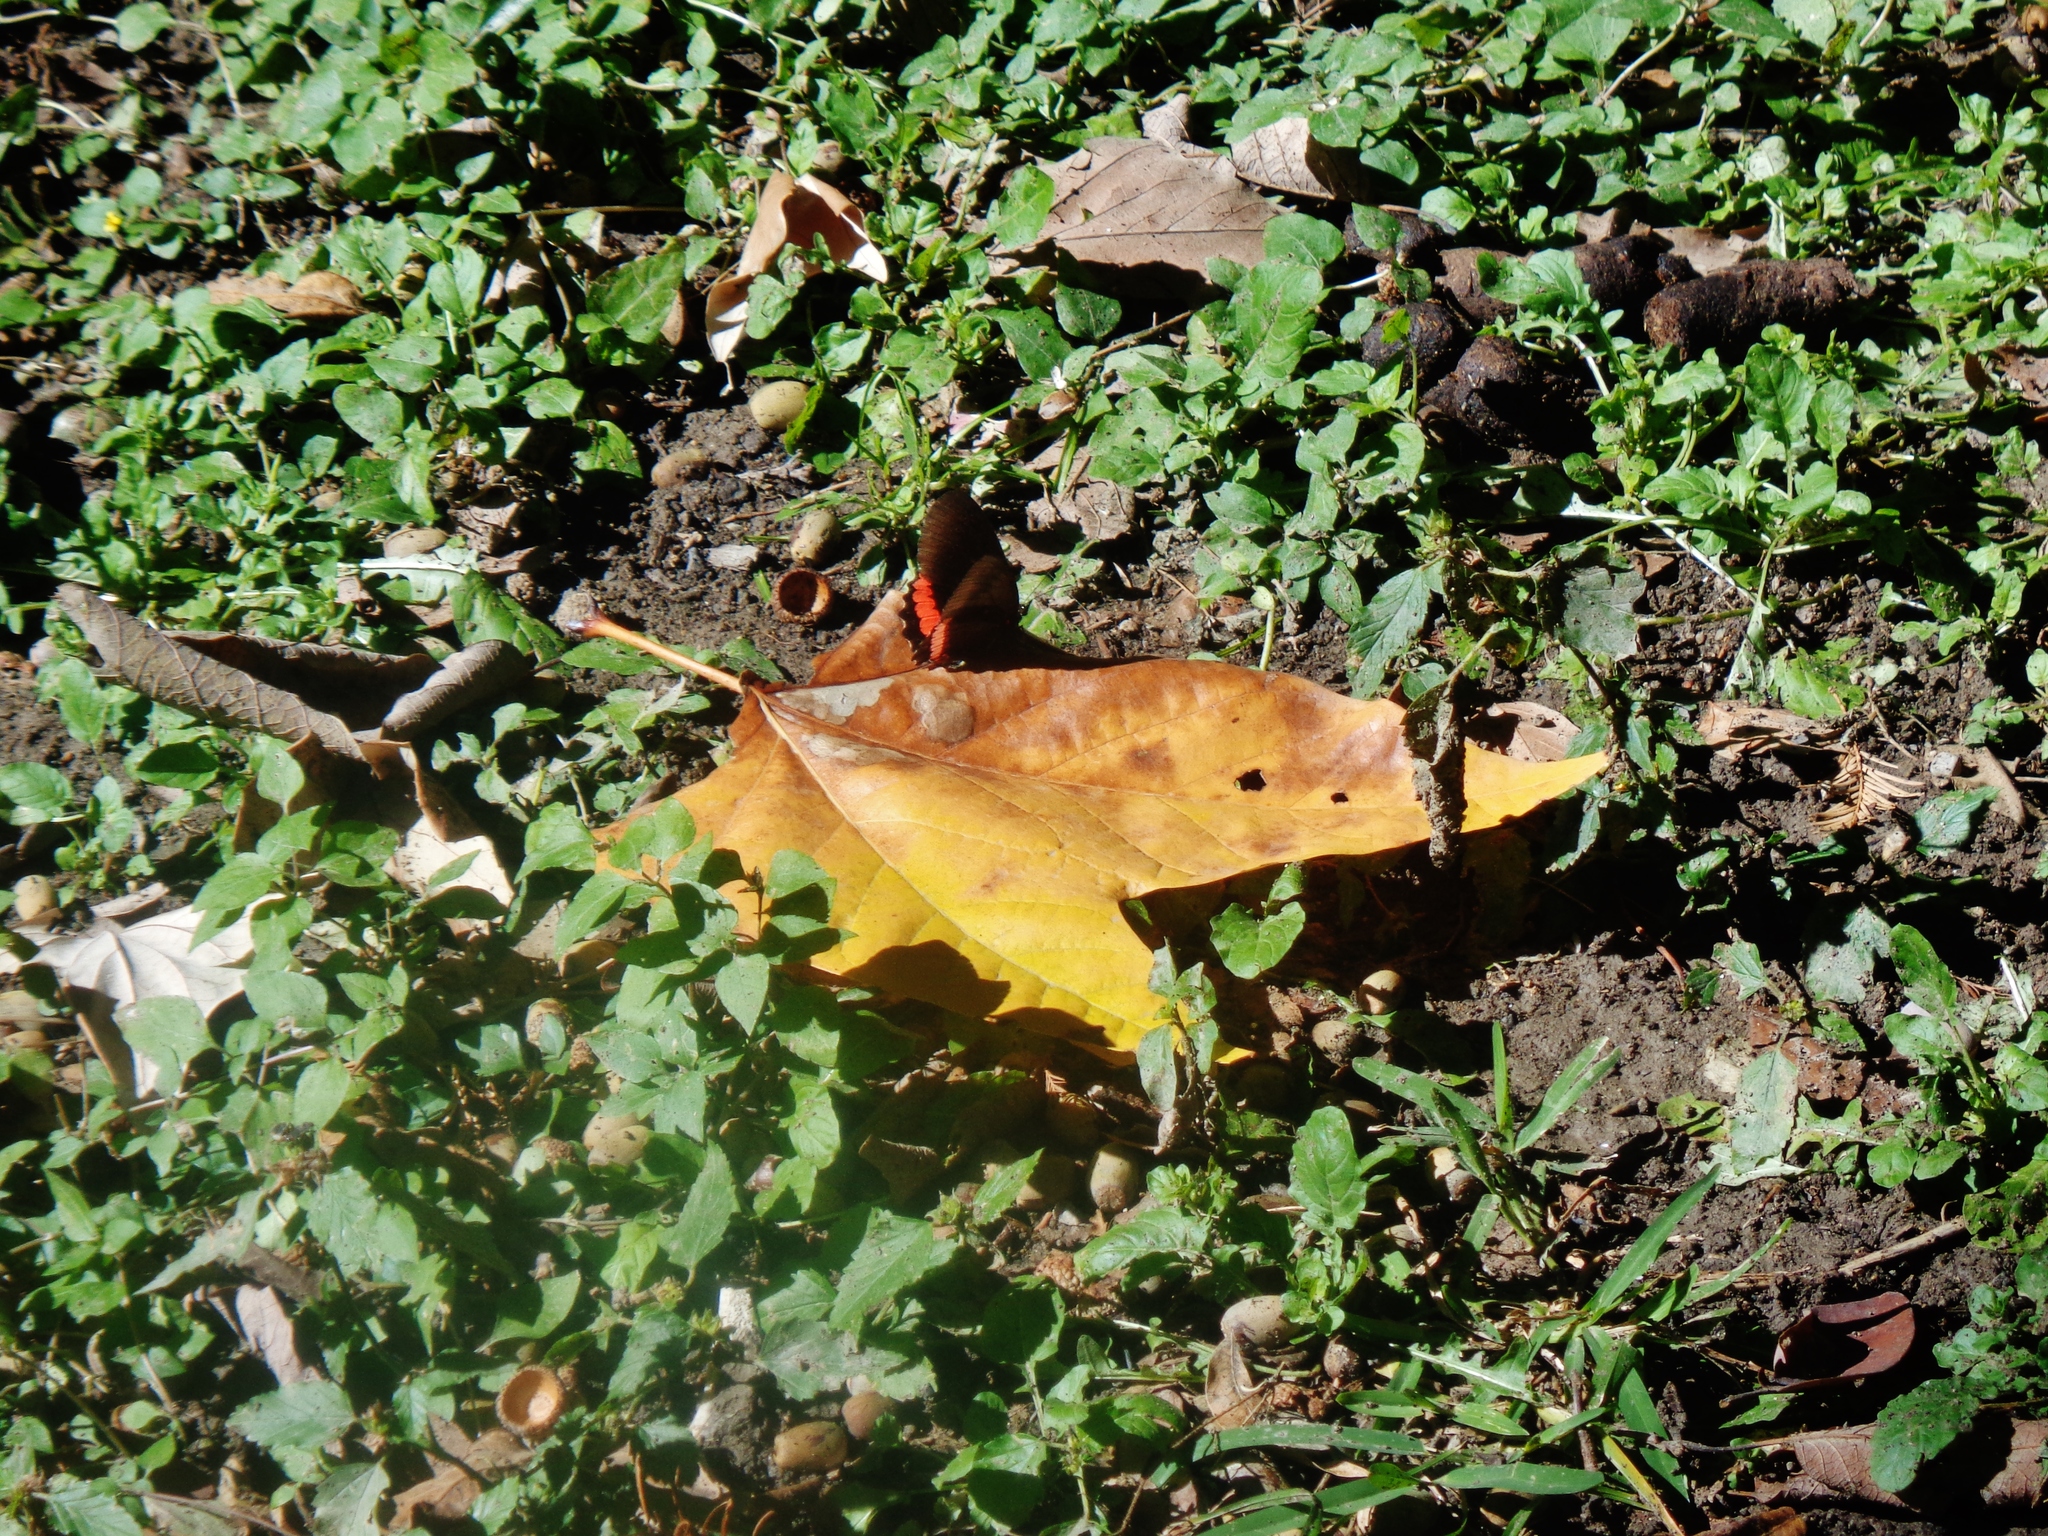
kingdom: Animalia
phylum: Arthropoda
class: Insecta
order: Lepidoptera
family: Nymphalidae
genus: Biblis
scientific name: Biblis aganisa
